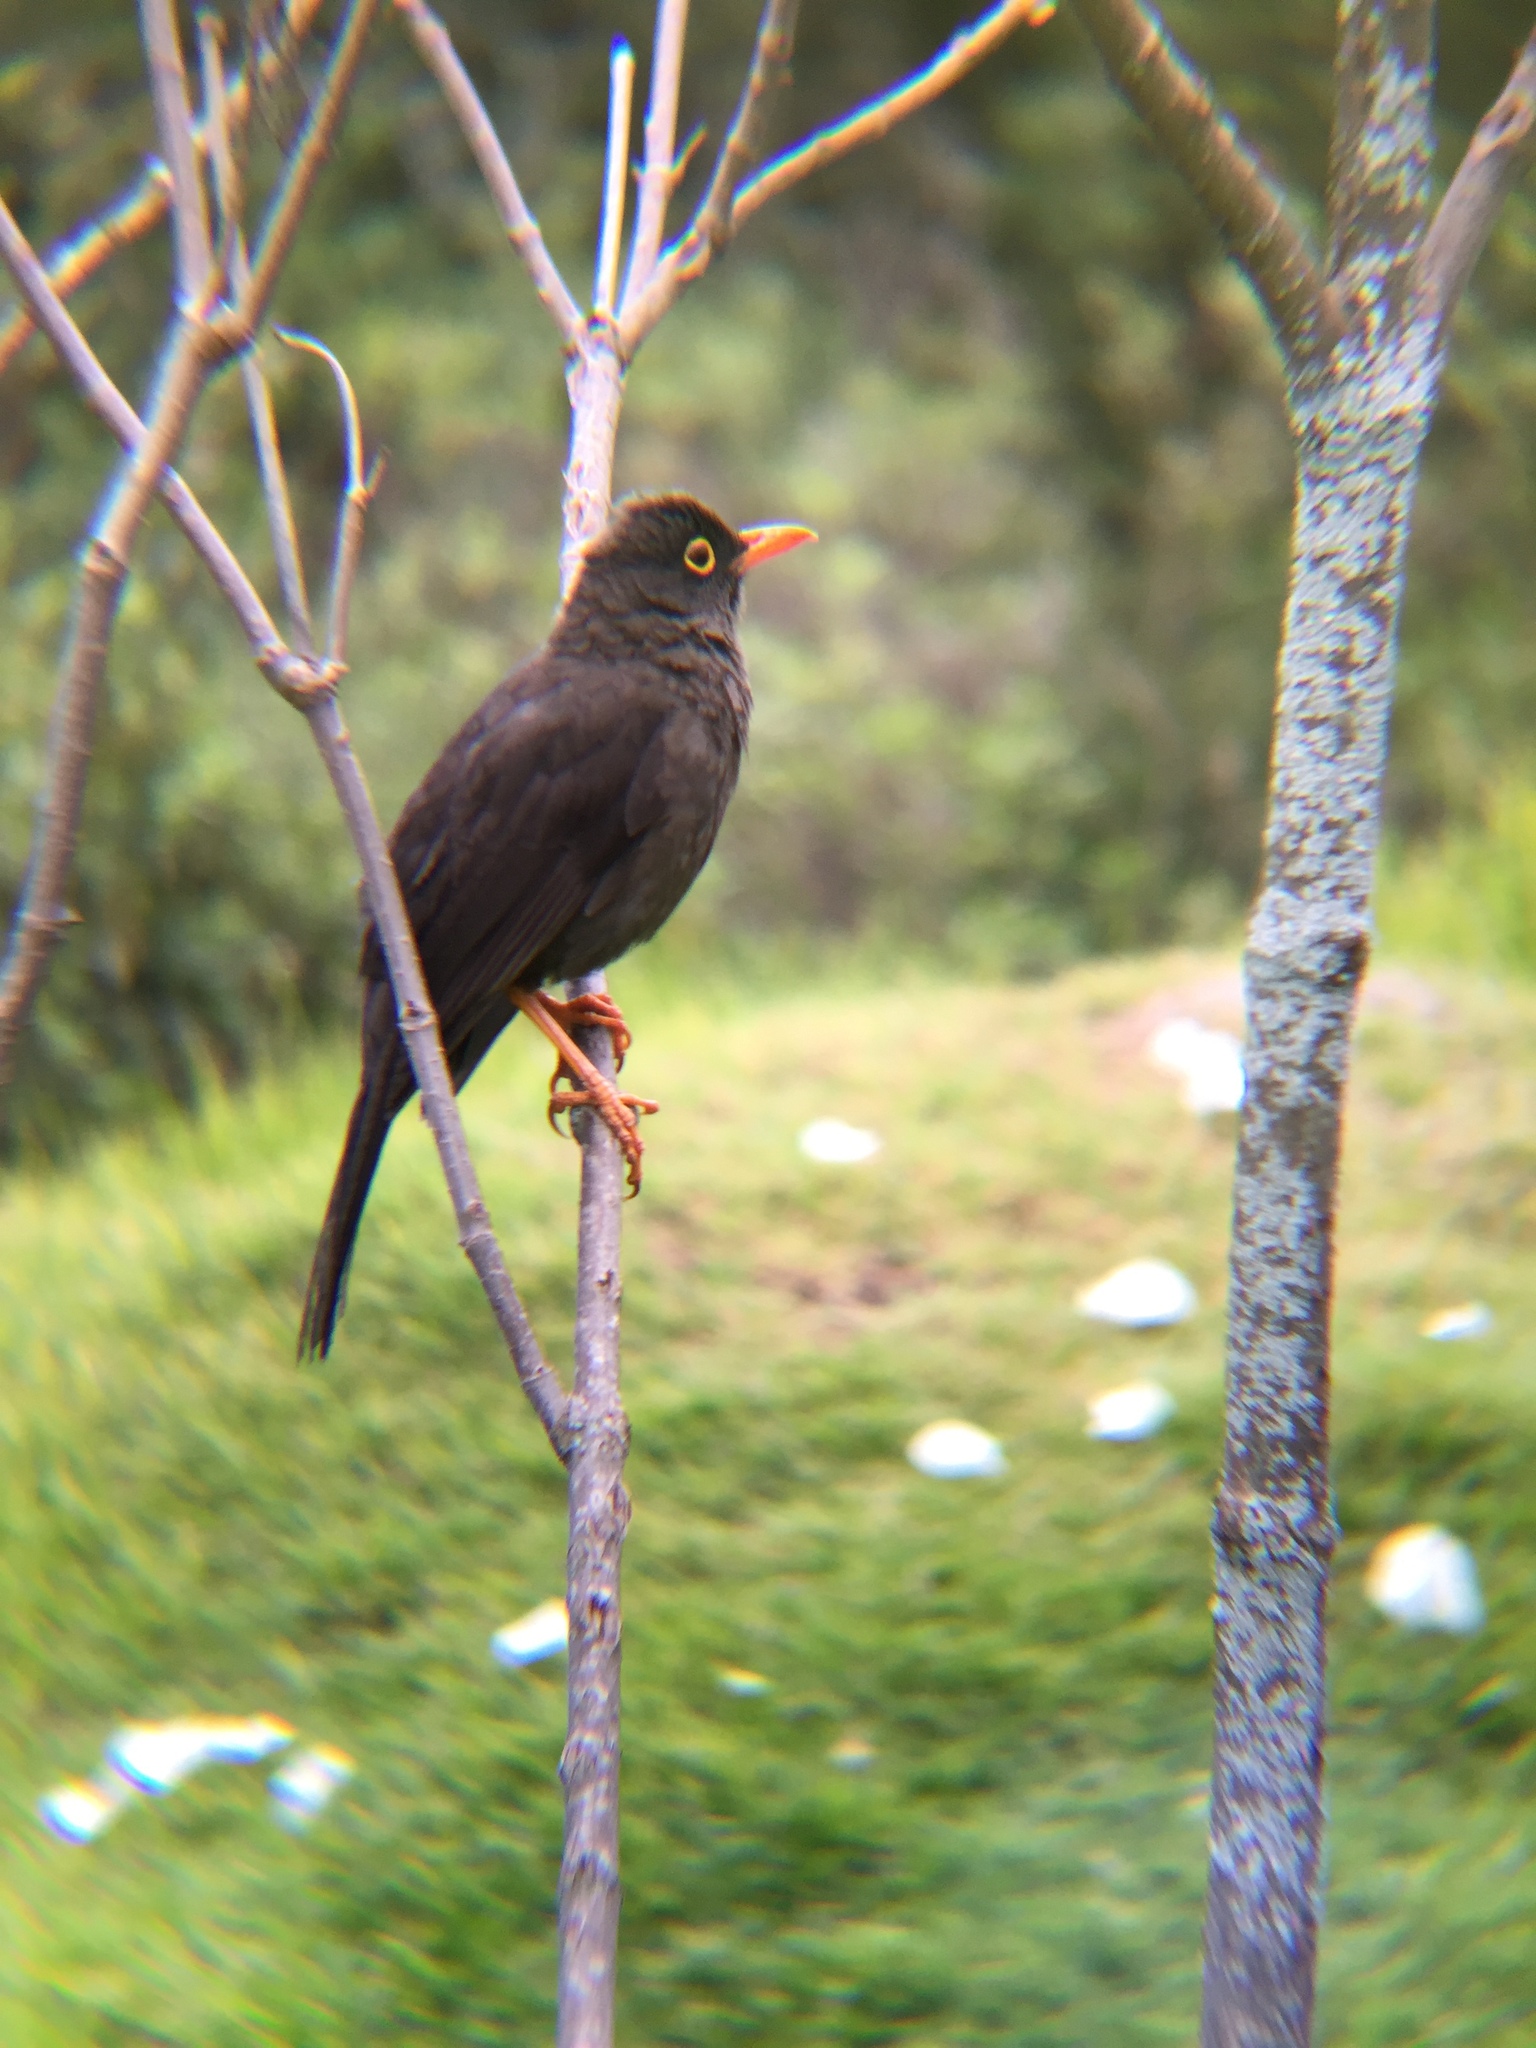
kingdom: Animalia
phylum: Chordata
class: Aves
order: Passeriformes
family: Turdidae
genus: Turdus
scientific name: Turdus fuscater
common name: Great thrush
